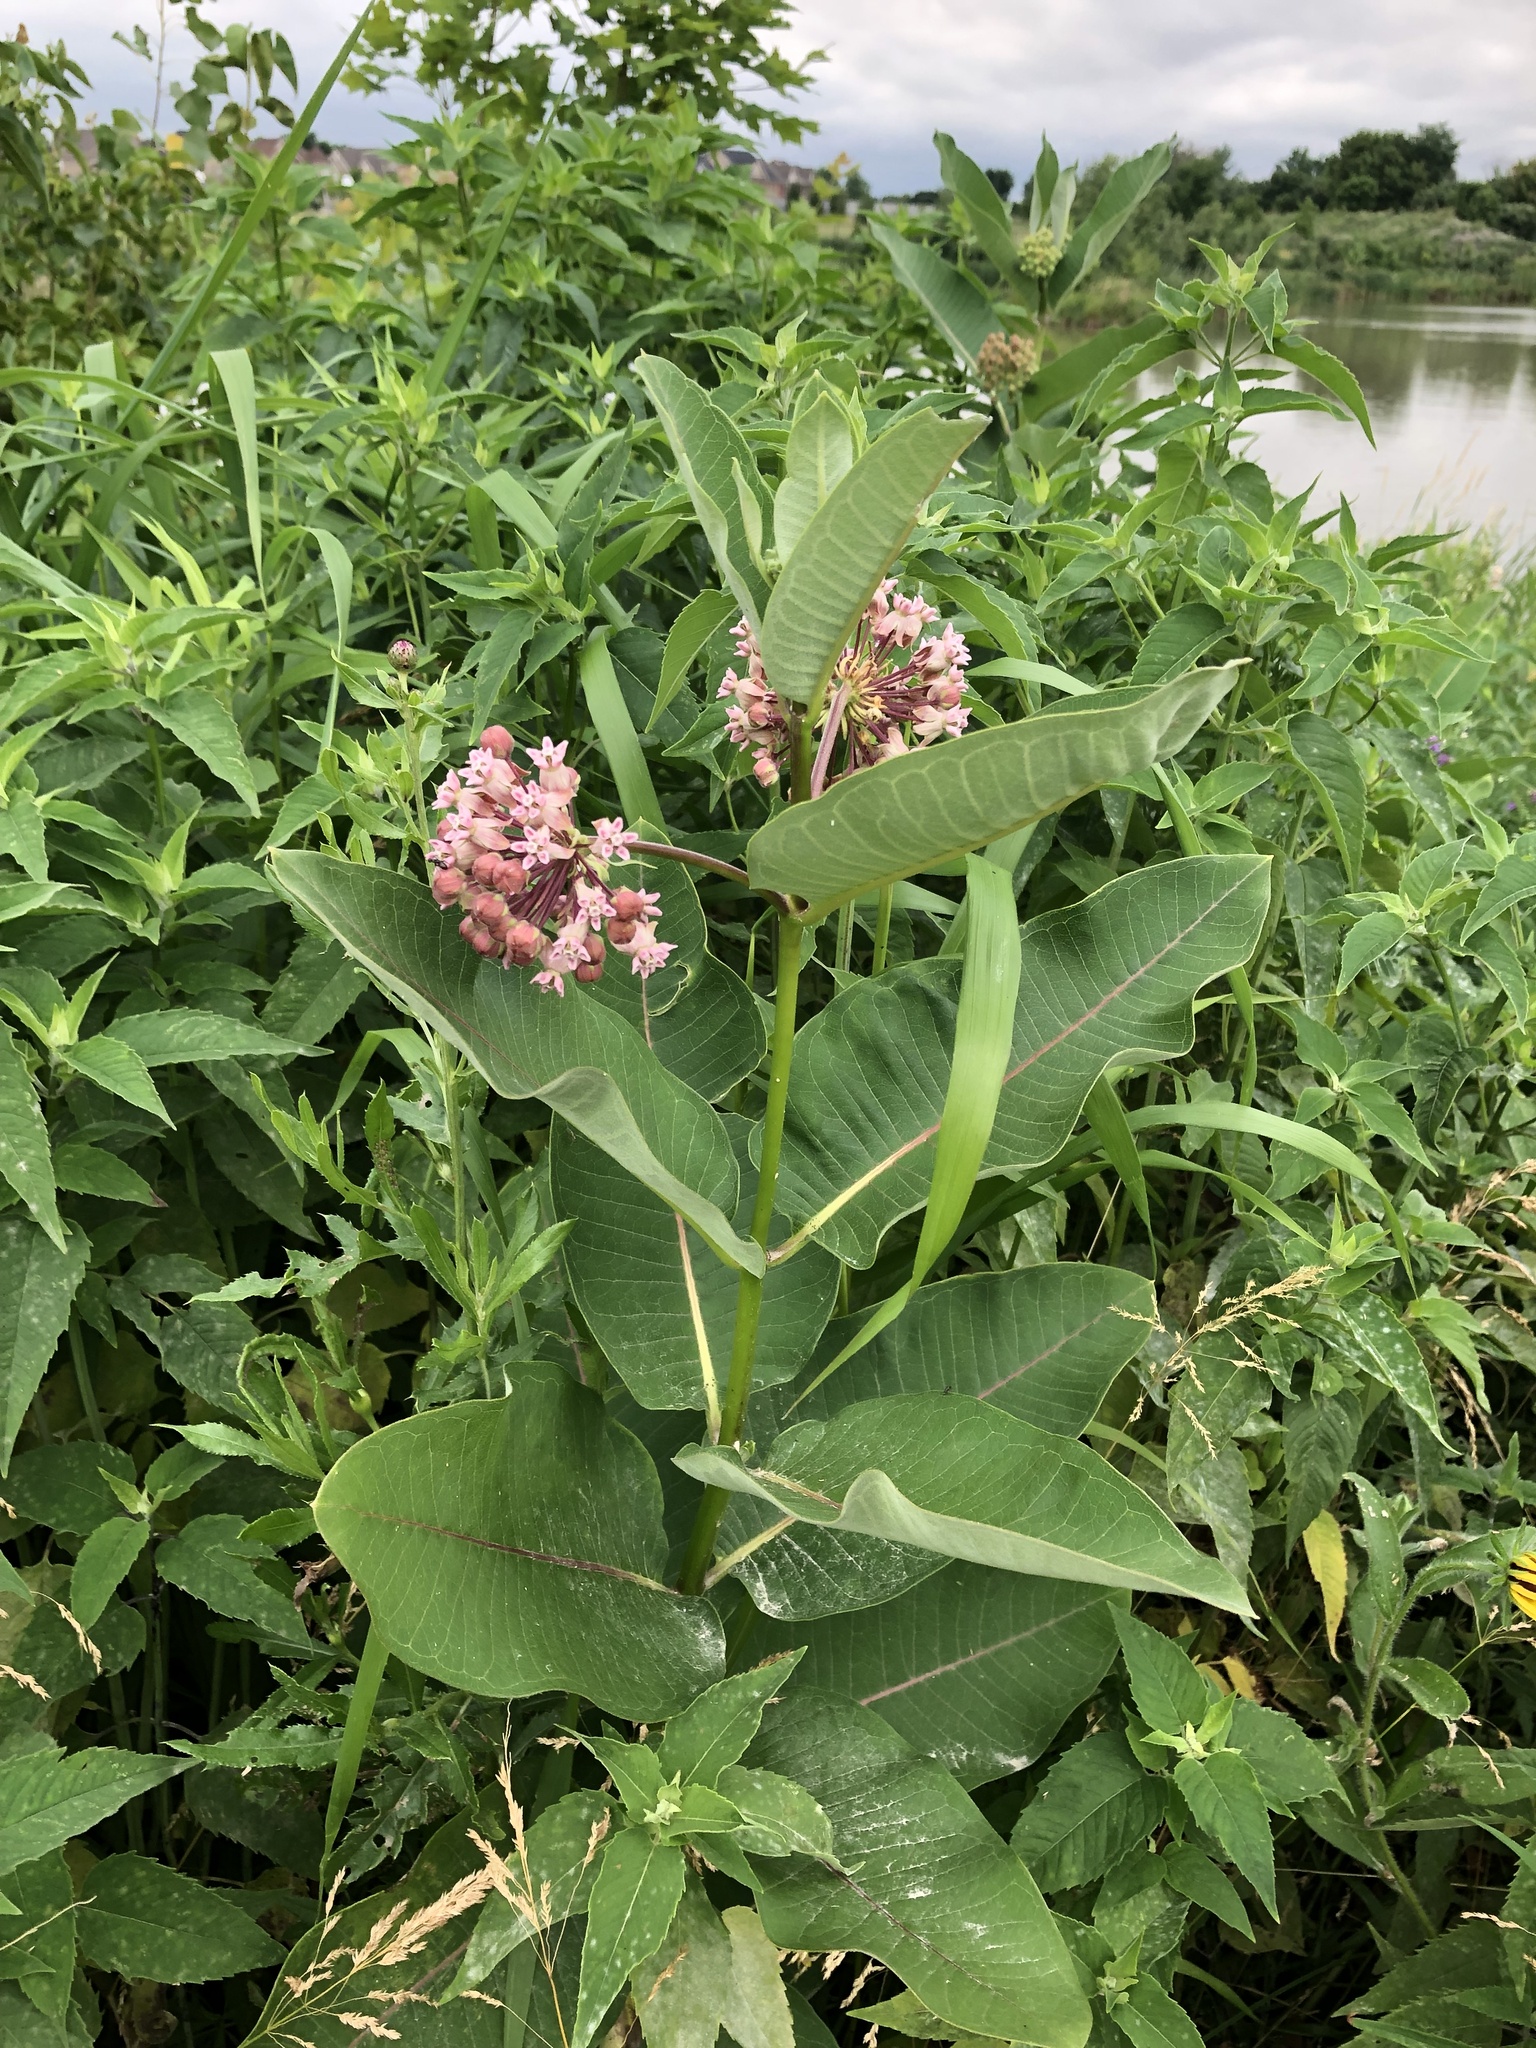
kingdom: Plantae
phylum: Tracheophyta
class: Magnoliopsida
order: Gentianales
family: Apocynaceae
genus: Asclepias
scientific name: Asclepias syriaca
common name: Common milkweed
